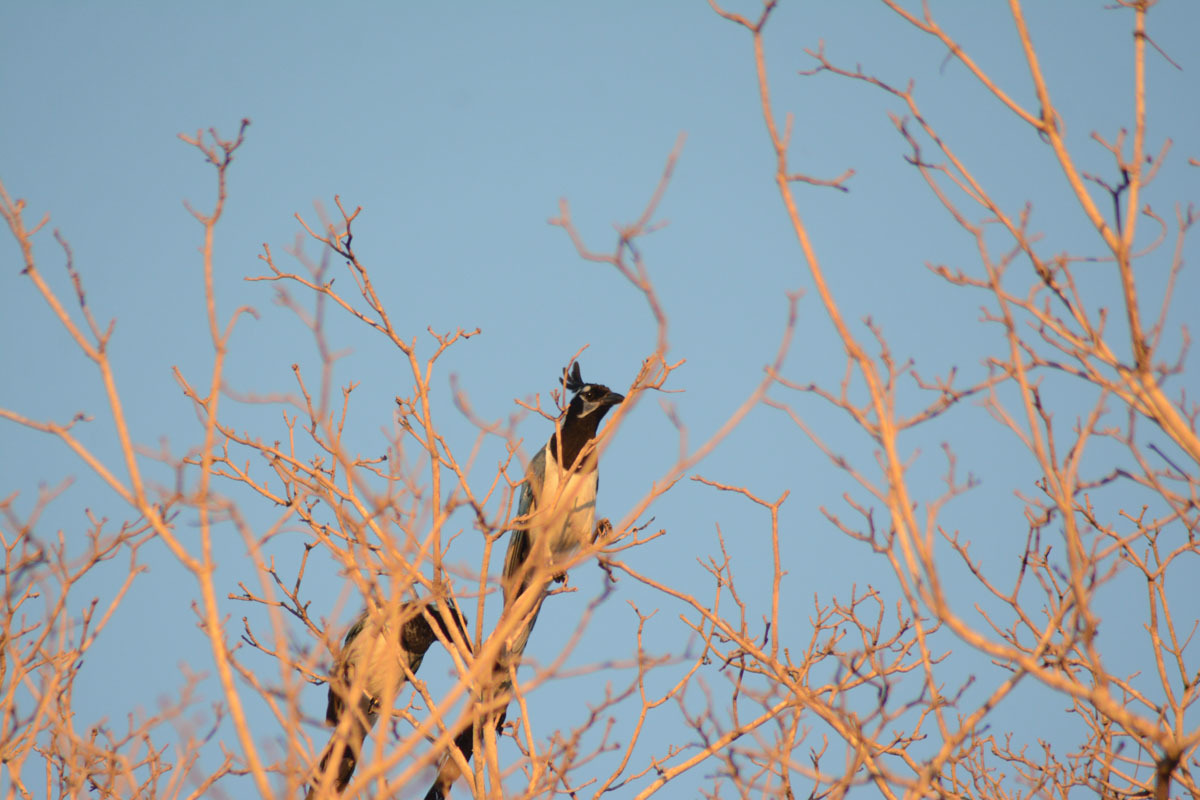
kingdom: Animalia
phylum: Chordata
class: Aves
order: Passeriformes
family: Corvidae
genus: Calocitta
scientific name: Calocitta colliei
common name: Black-throated magpie-jay
